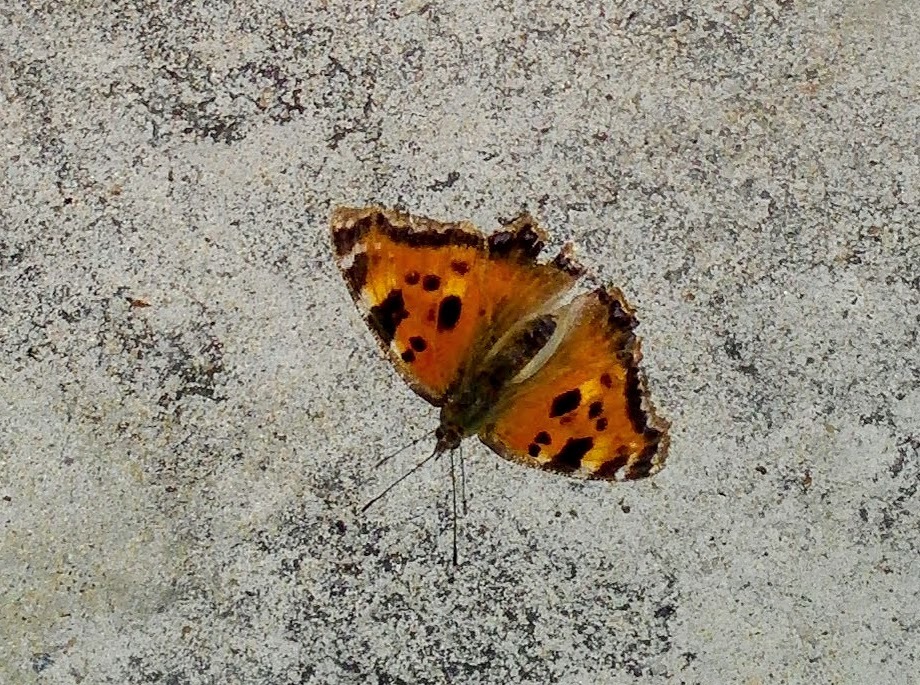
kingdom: Animalia
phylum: Arthropoda
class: Insecta
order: Lepidoptera
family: Nymphalidae
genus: Nymphalis
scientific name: Nymphalis xanthomelas
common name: Scarce tortoiseshell
